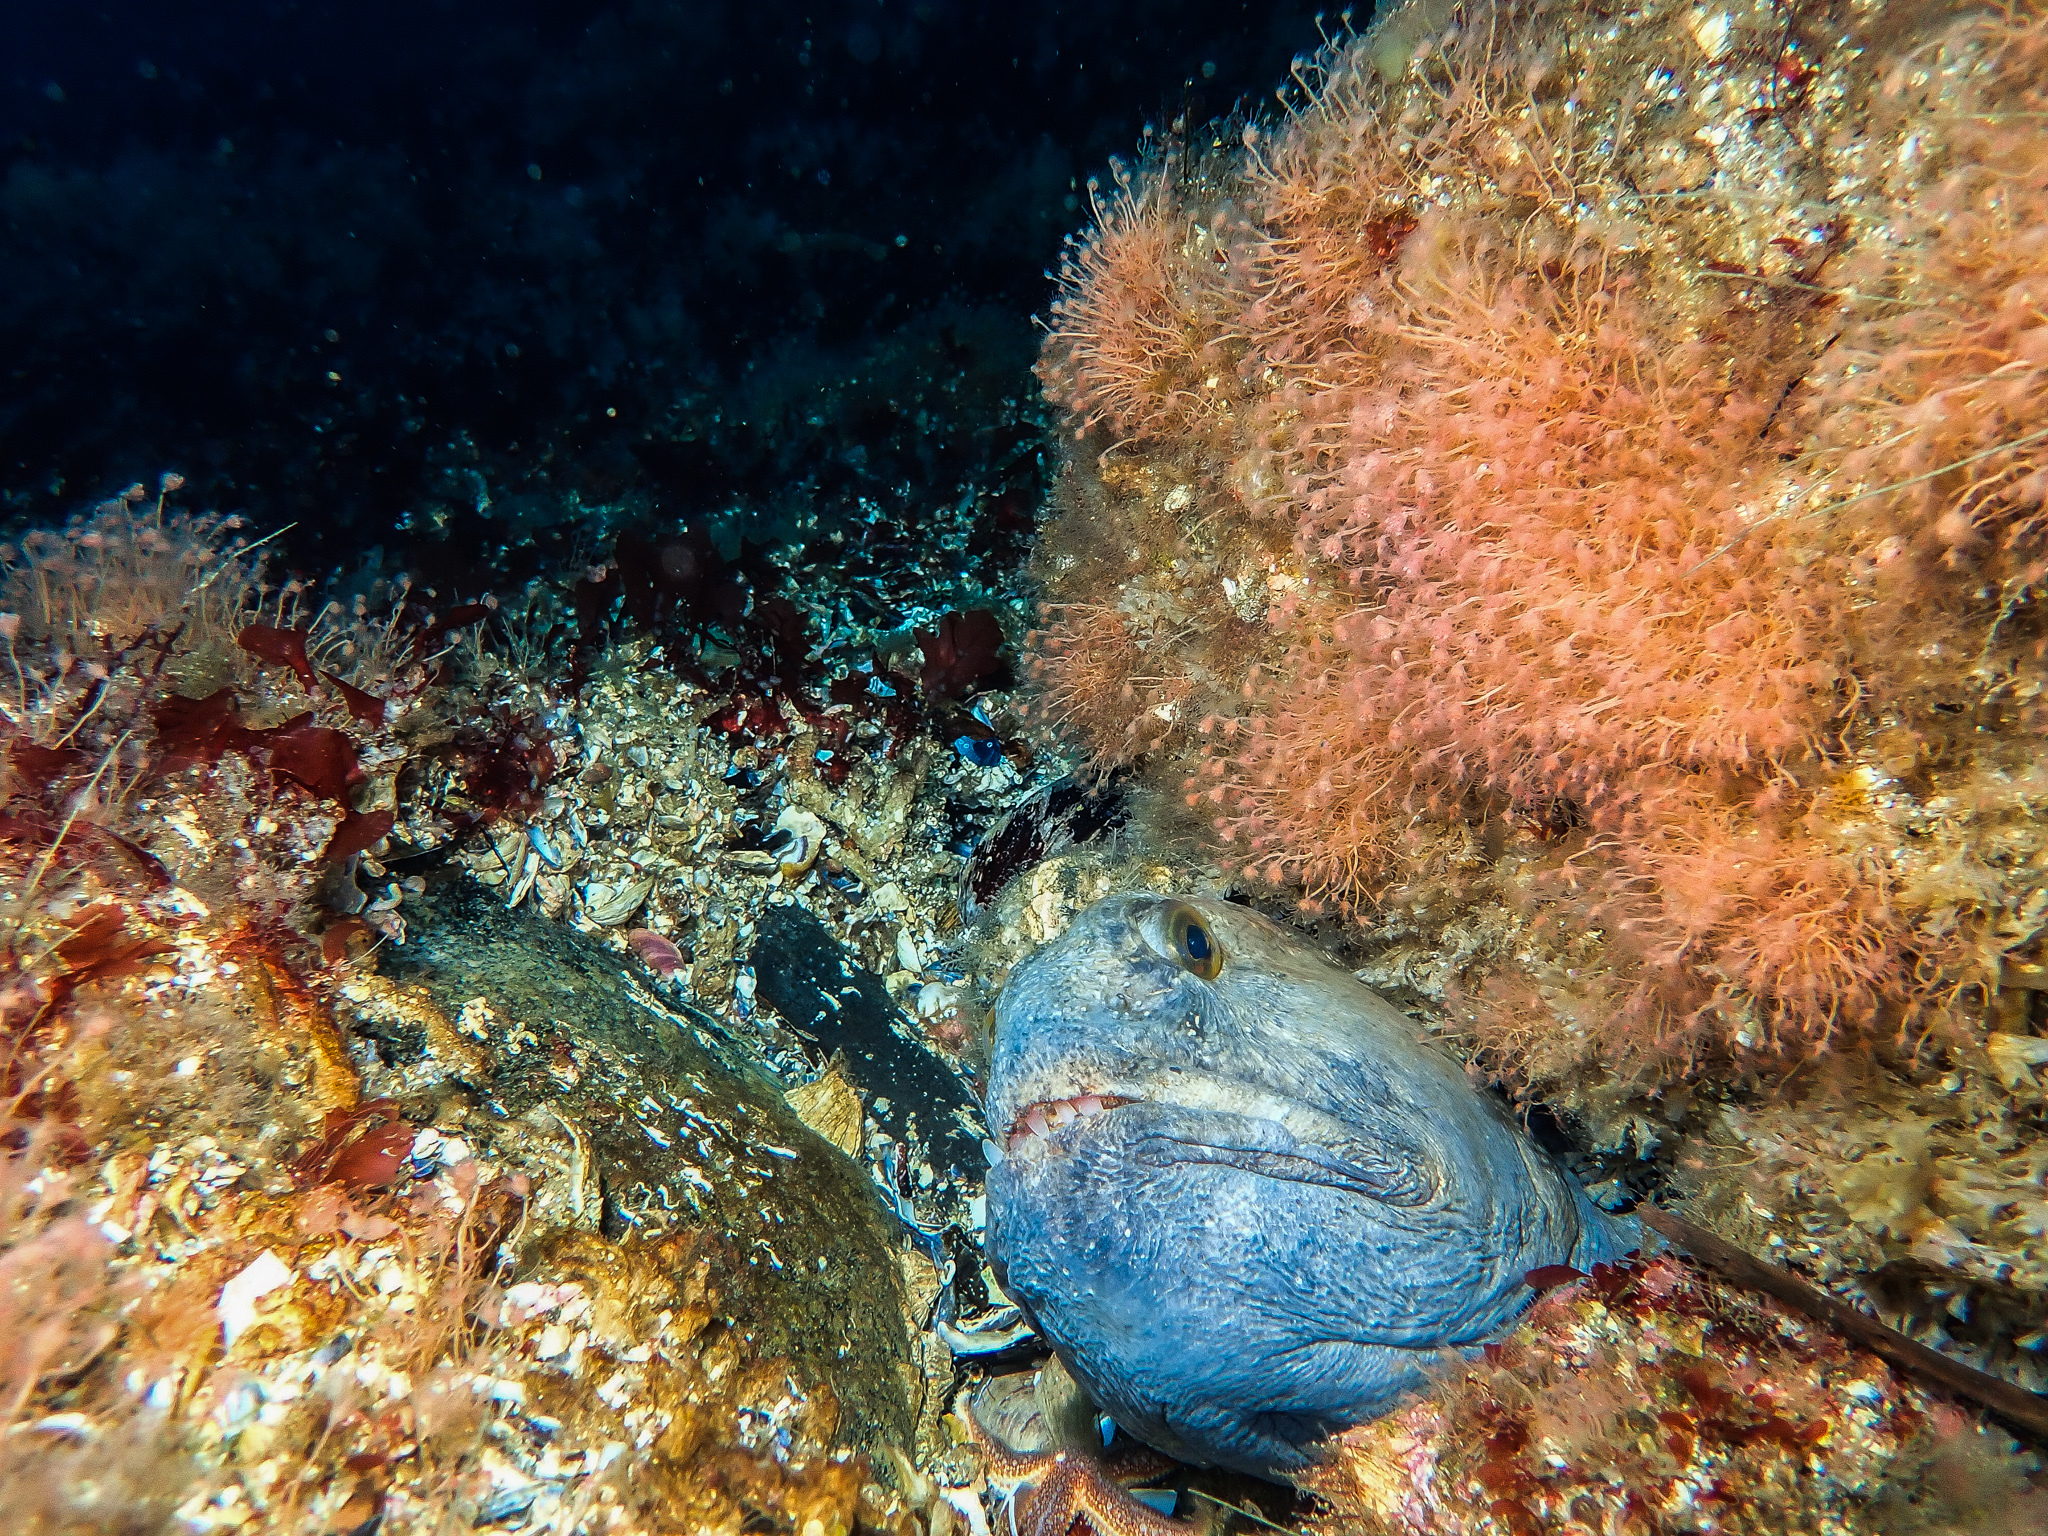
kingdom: Animalia
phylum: Chordata
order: Perciformes
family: Anarhichadidae
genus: Anarhichas
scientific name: Anarhichas lupus
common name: Wolf-fish
